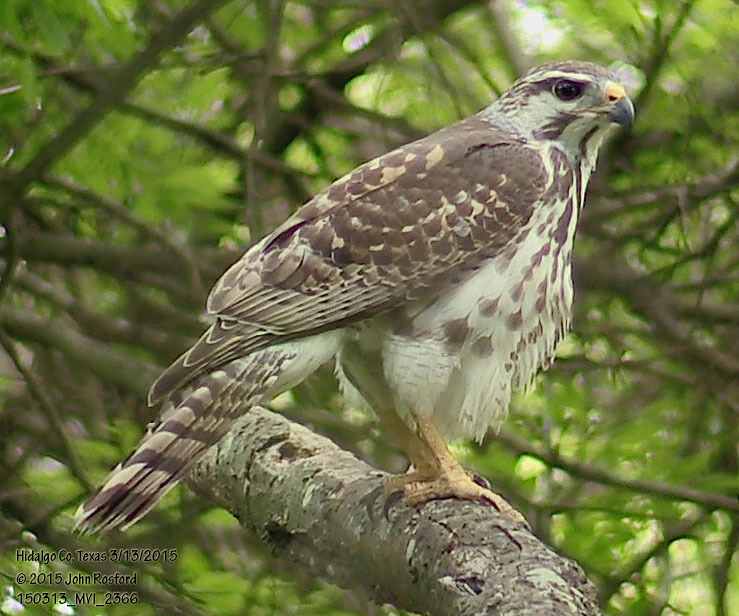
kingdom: Animalia
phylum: Chordata
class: Aves
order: Accipitriformes
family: Accipitridae
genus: Buteo
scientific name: Buteo nitidus
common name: Grey-lined hawk
